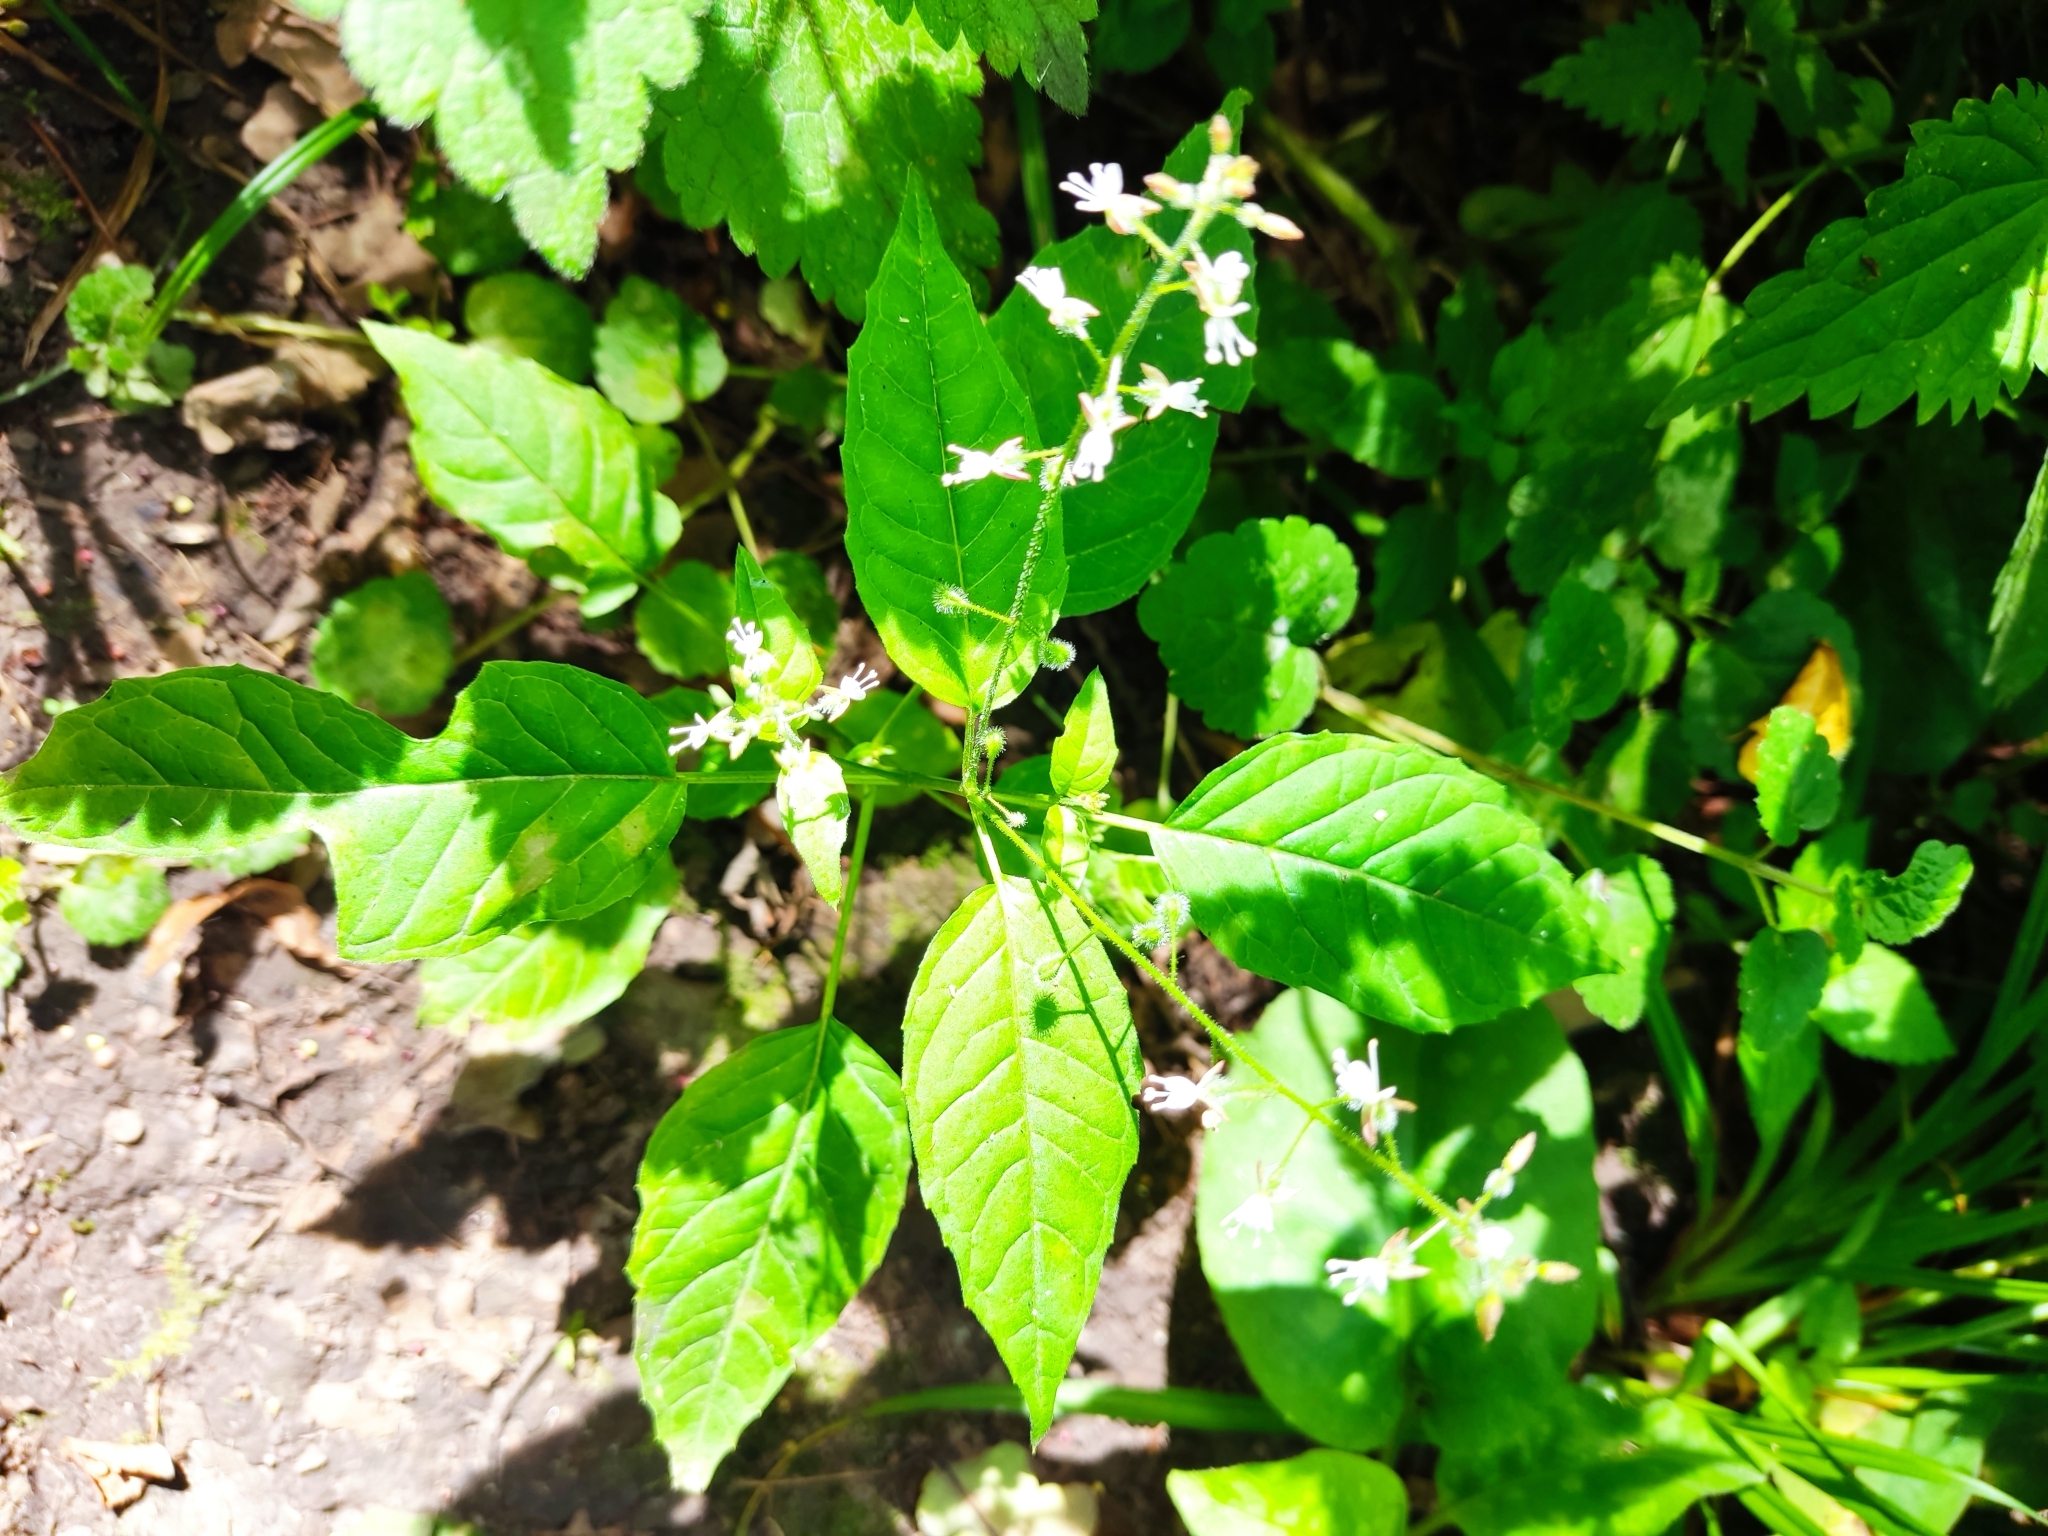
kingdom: Plantae
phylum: Tracheophyta
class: Magnoliopsida
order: Myrtales
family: Onagraceae
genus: Circaea
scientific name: Circaea lutetiana
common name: Enchanter's-nightshade
